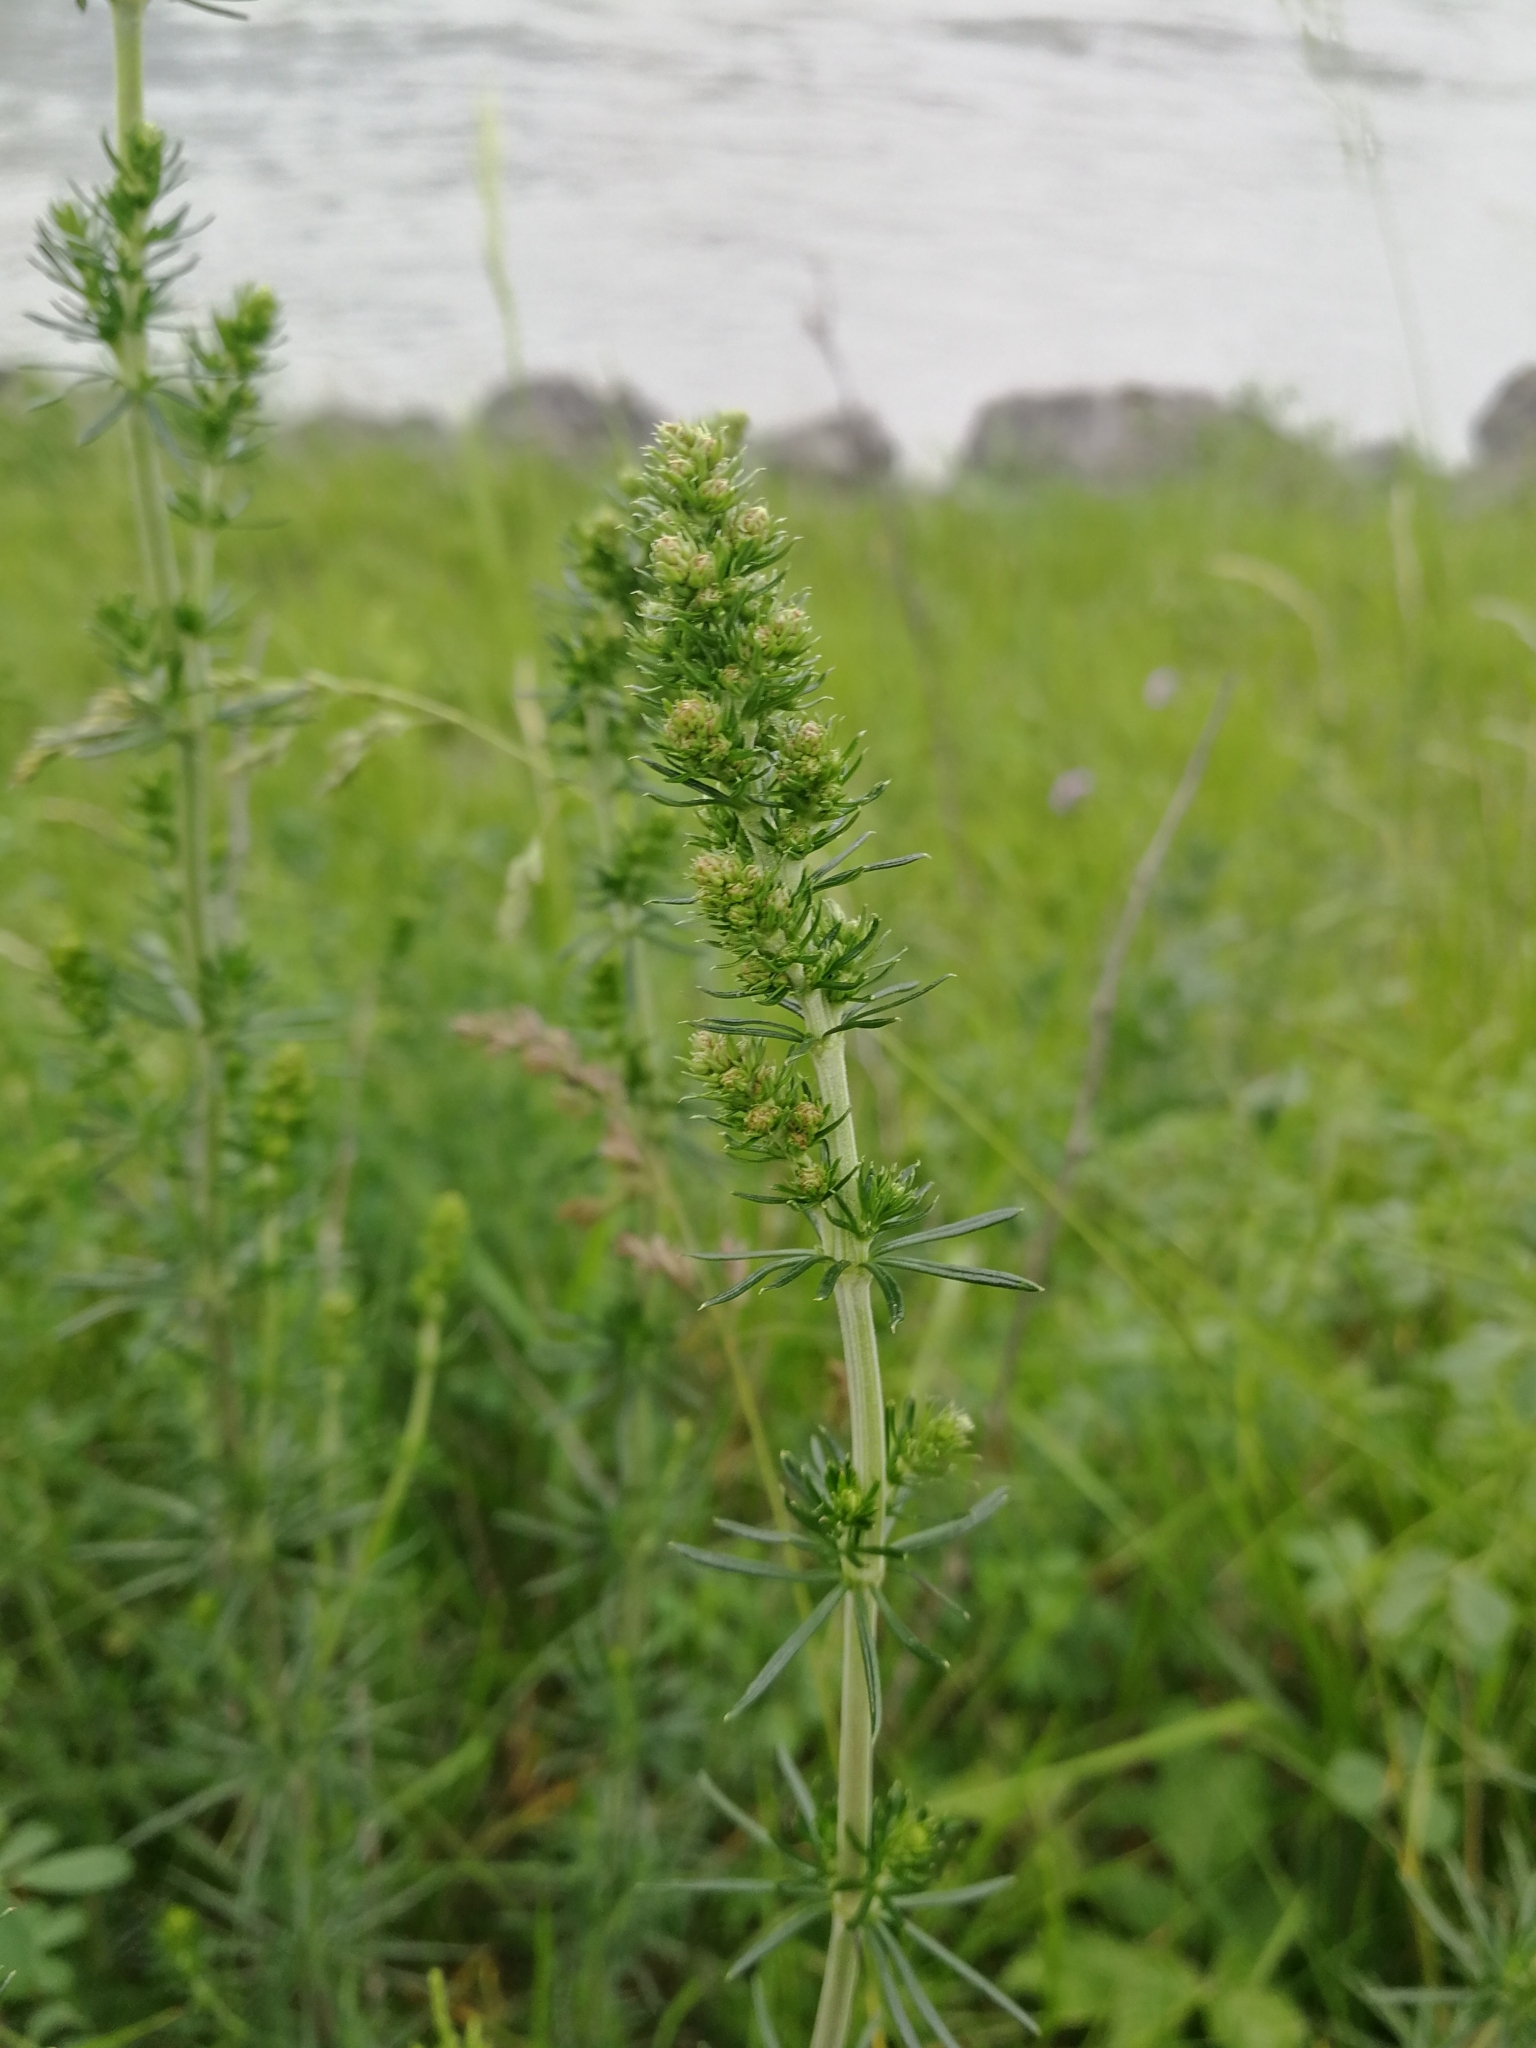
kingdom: Plantae
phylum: Tracheophyta
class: Magnoliopsida
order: Gentianales
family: Rubiaceae
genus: Galium
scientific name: Galium verum
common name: Lady's bedstraw
